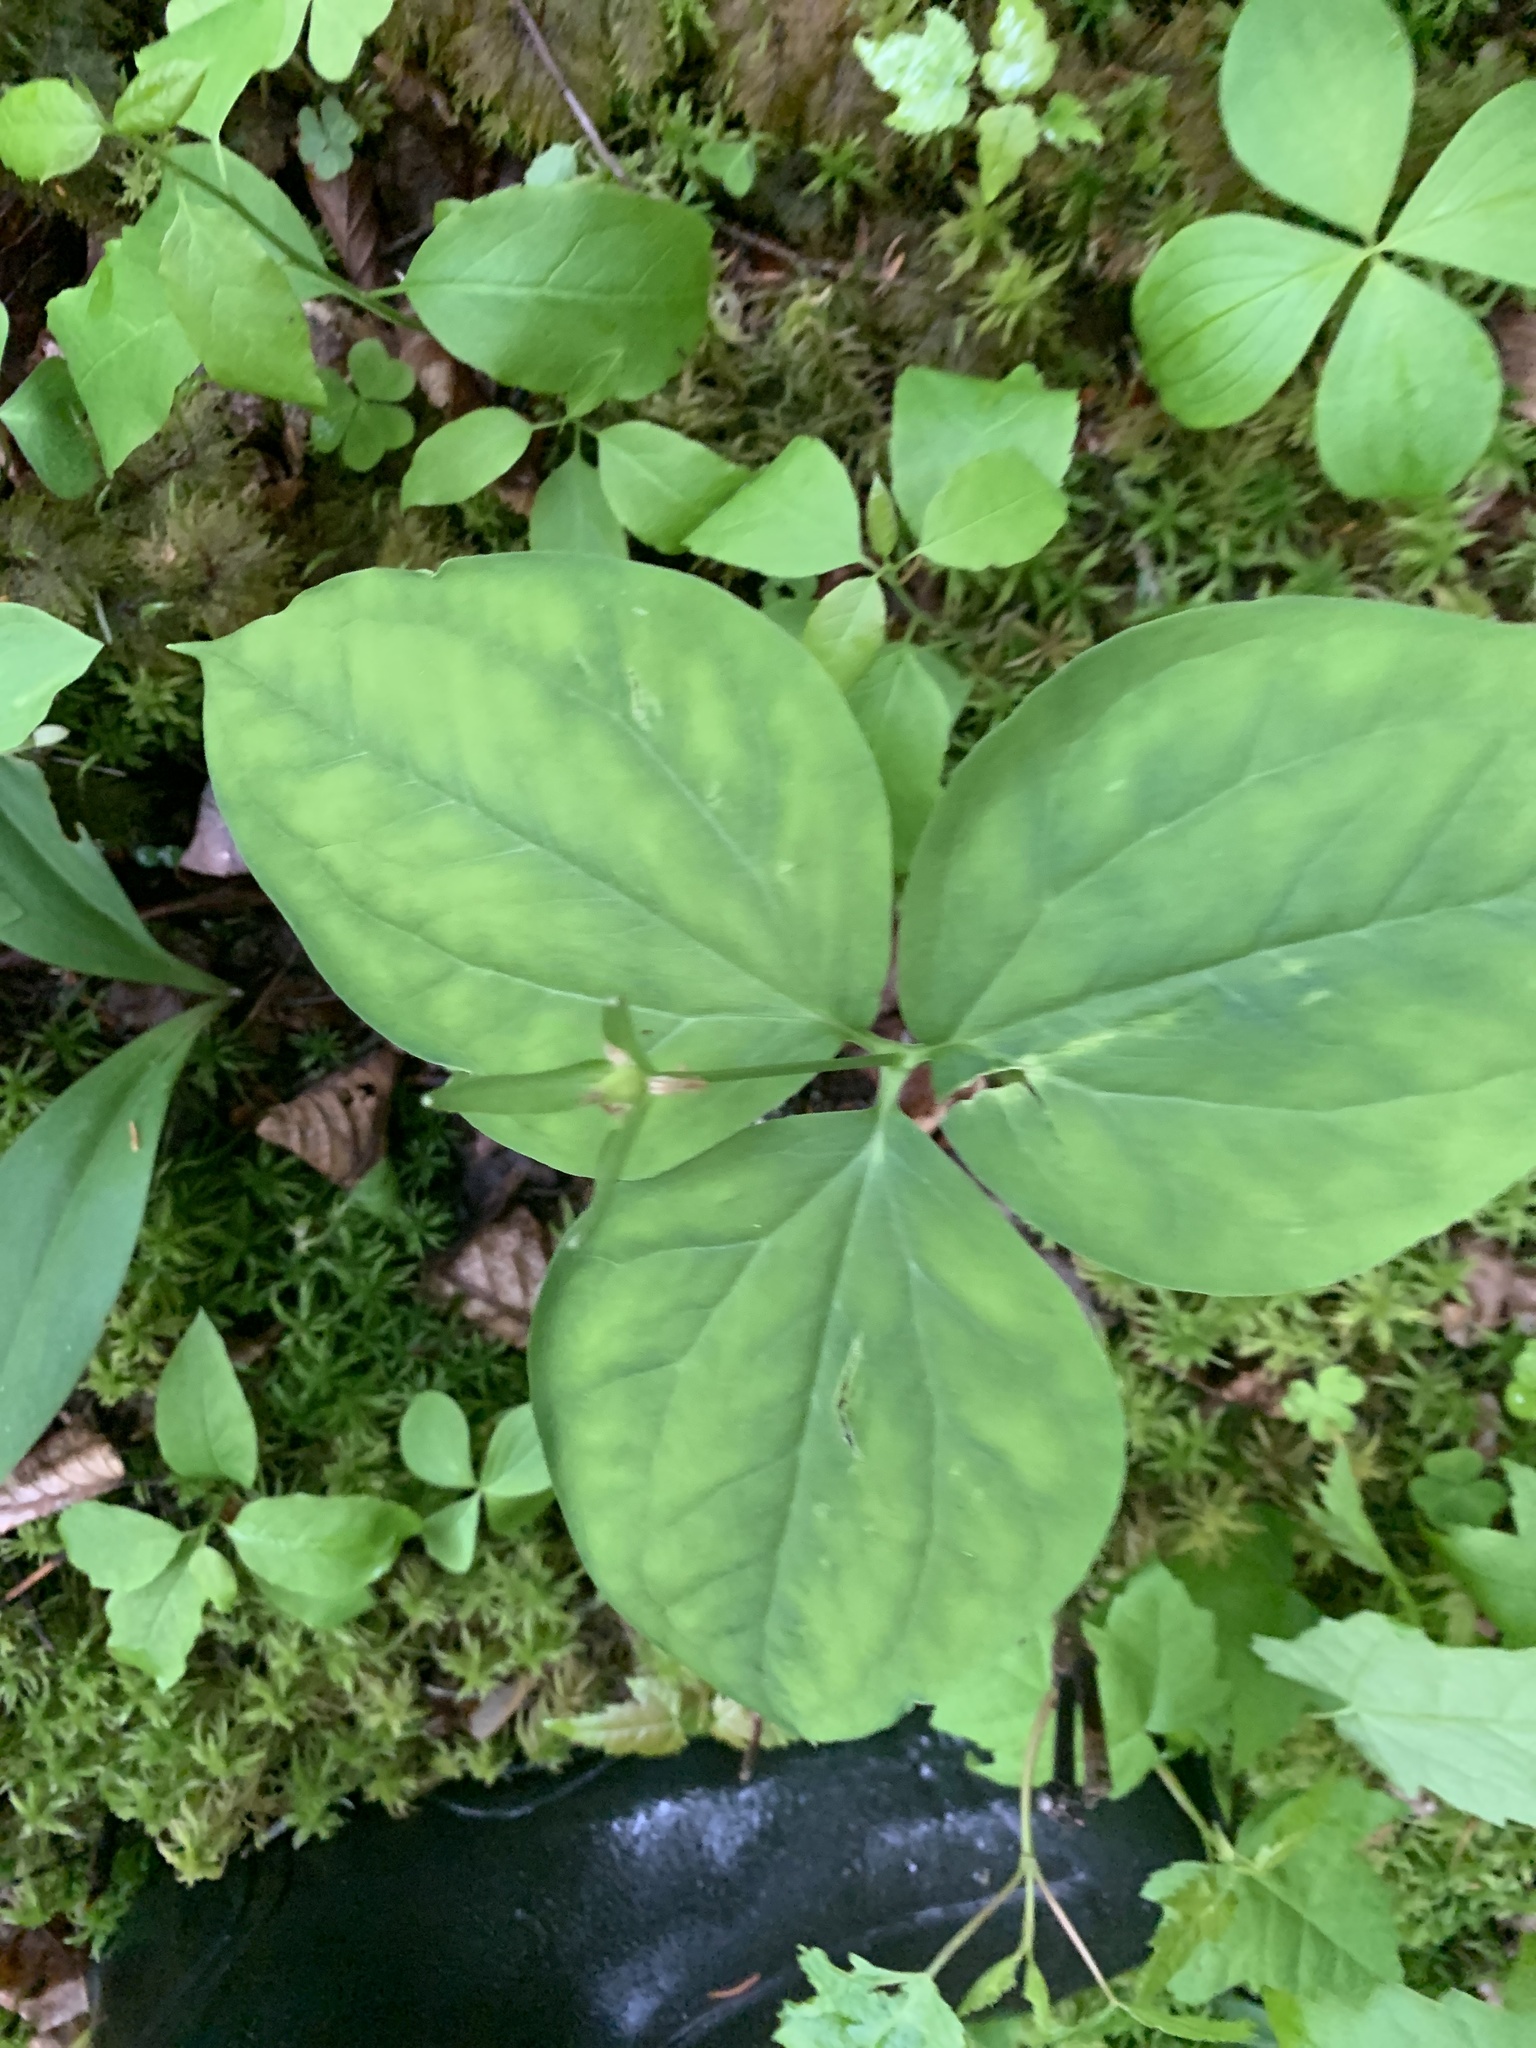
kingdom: Plantae
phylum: Tracheophyta
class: Liliopsida
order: Liliales
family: Melanthiaceae
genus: Trillium
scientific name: Trillium undulatum
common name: Paint trillium
